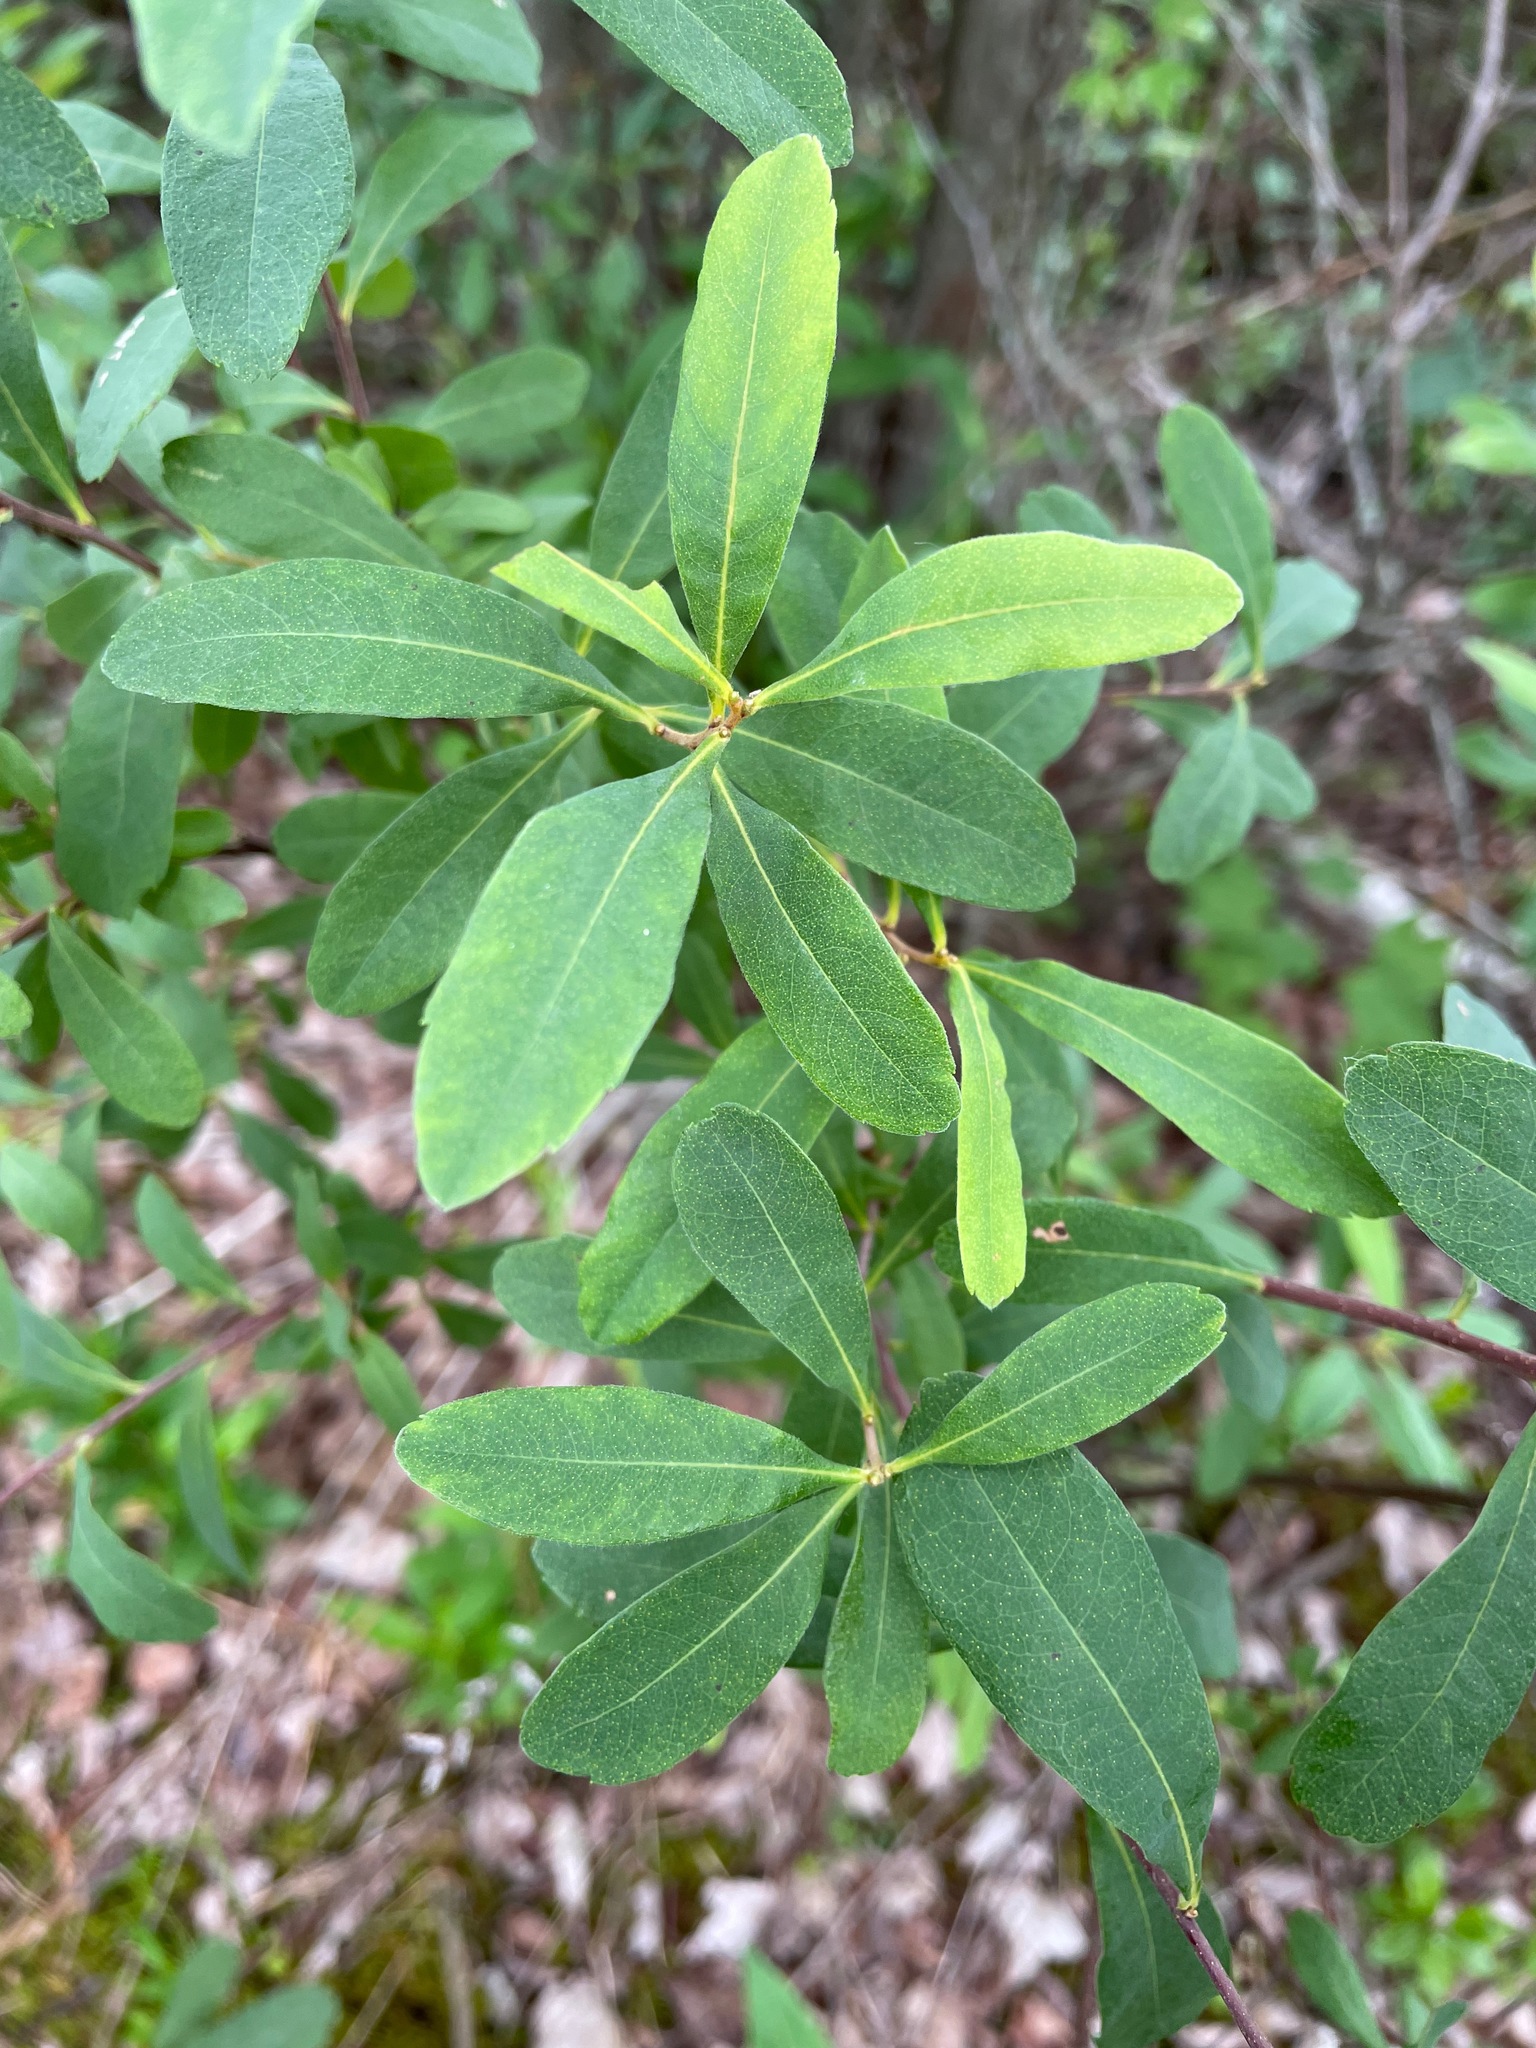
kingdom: Plantae
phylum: Tracheophyta
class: Magnoliopsida
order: Fagales
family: Myricaceae
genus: Myrica
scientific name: Myrica gale
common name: Sweet gale
